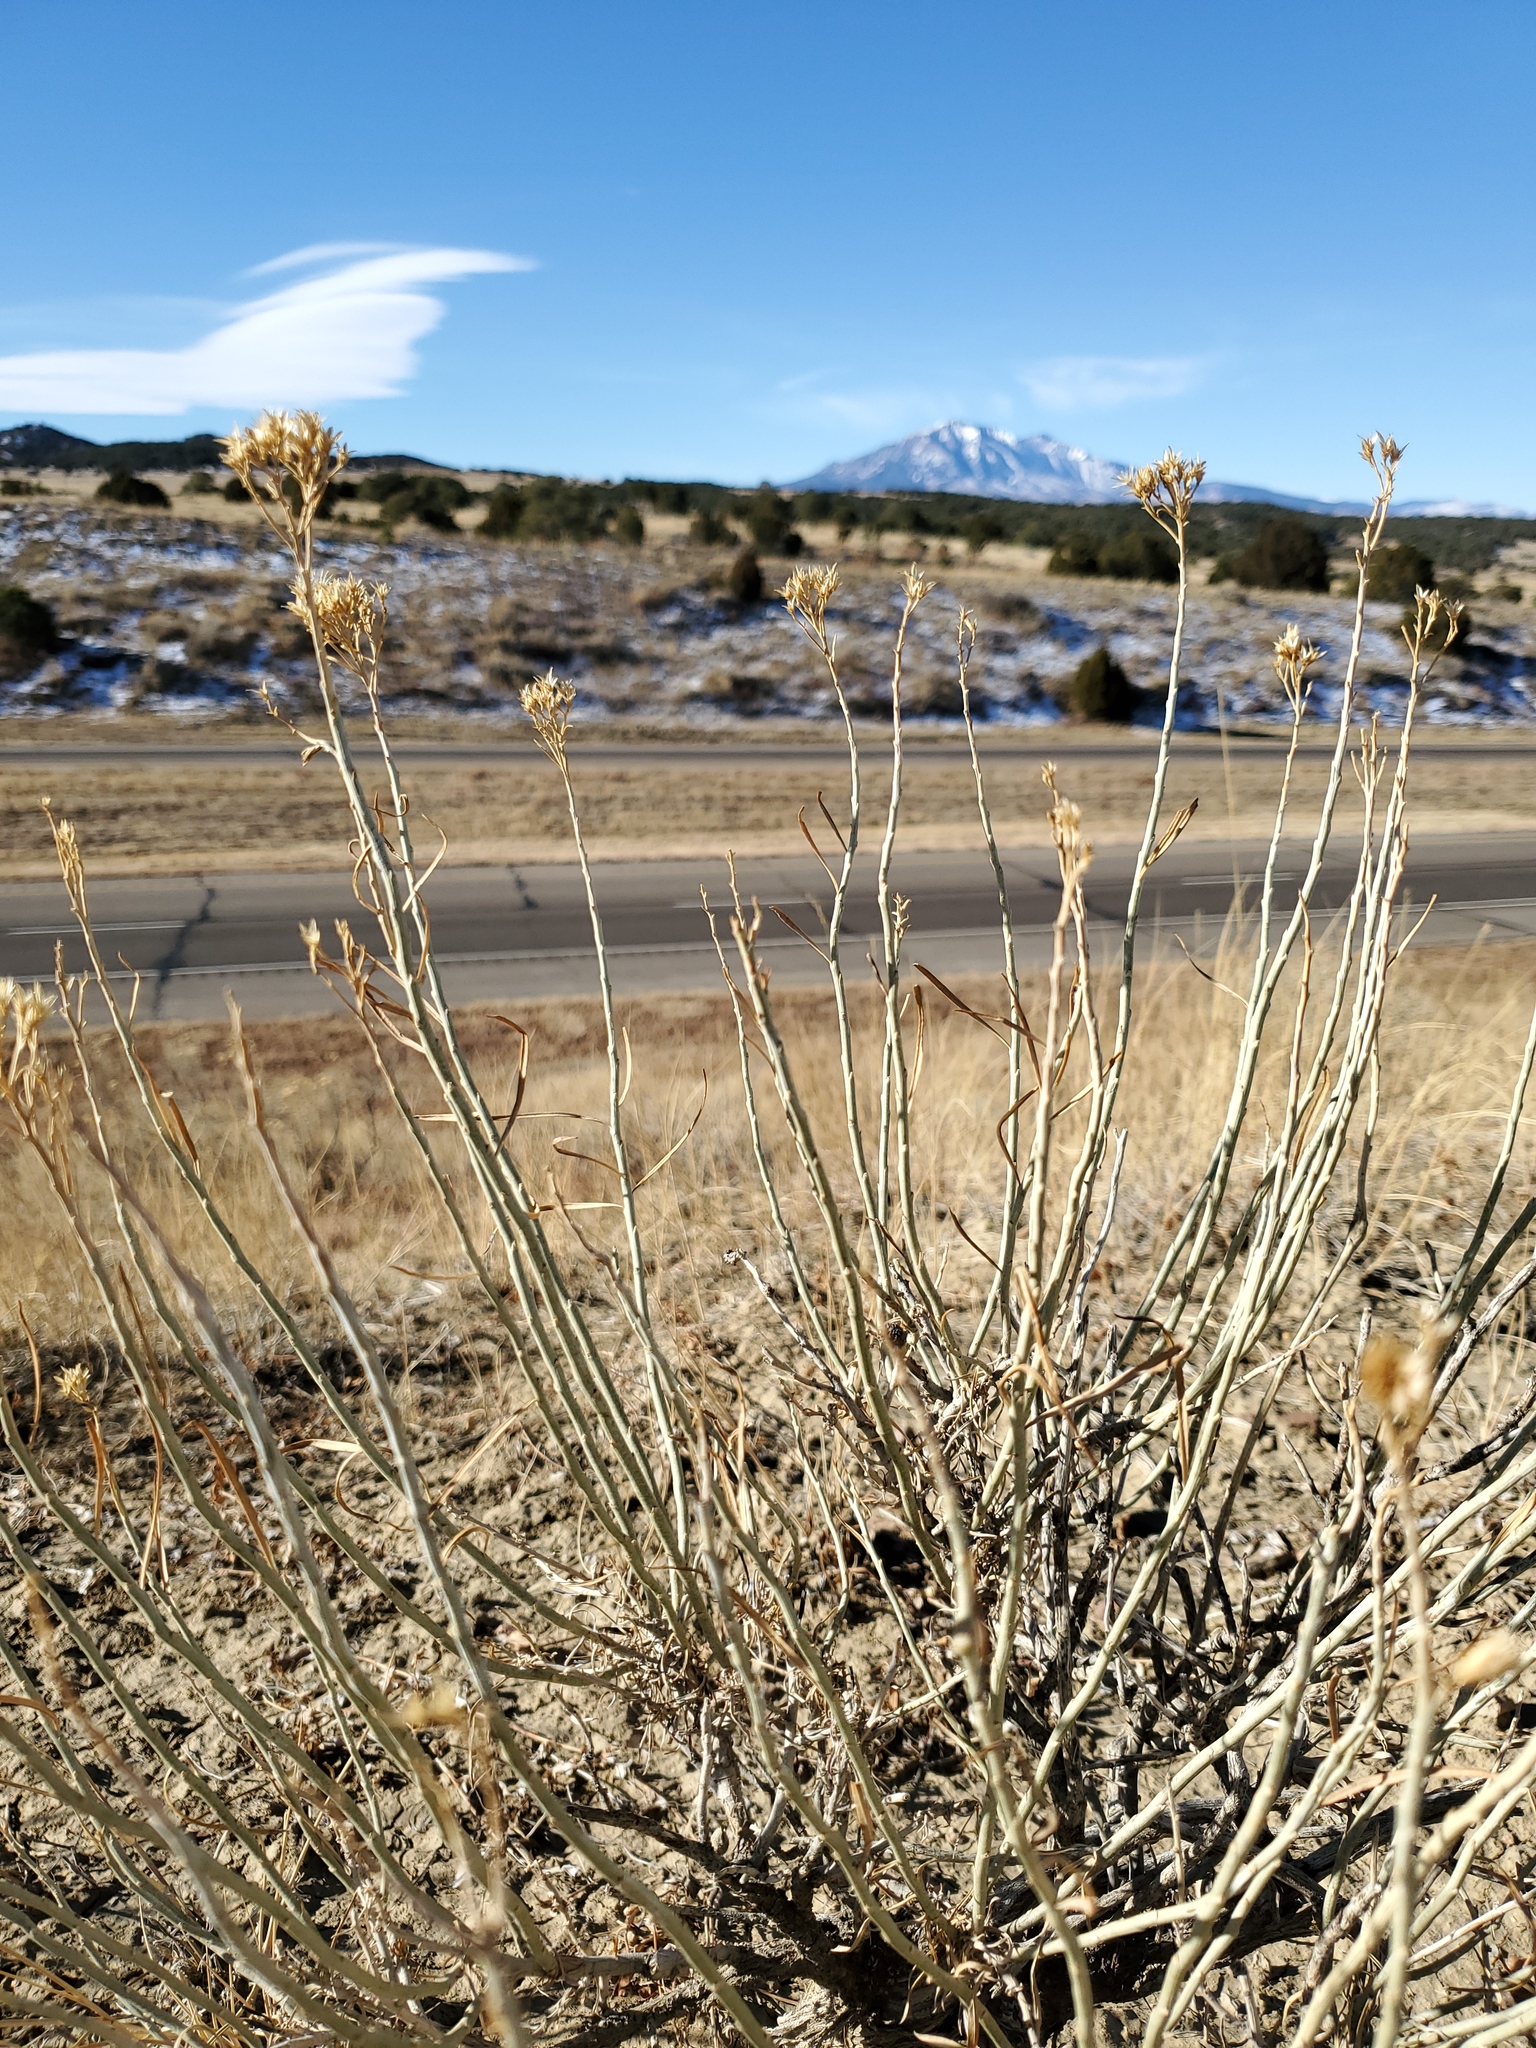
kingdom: Plantae
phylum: Tracheophyta
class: Magnoliopsida
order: Asterales
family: Asteraceae
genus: Ericameria
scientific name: Ericameria nauseosa
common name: Rubber rabbitbrush
